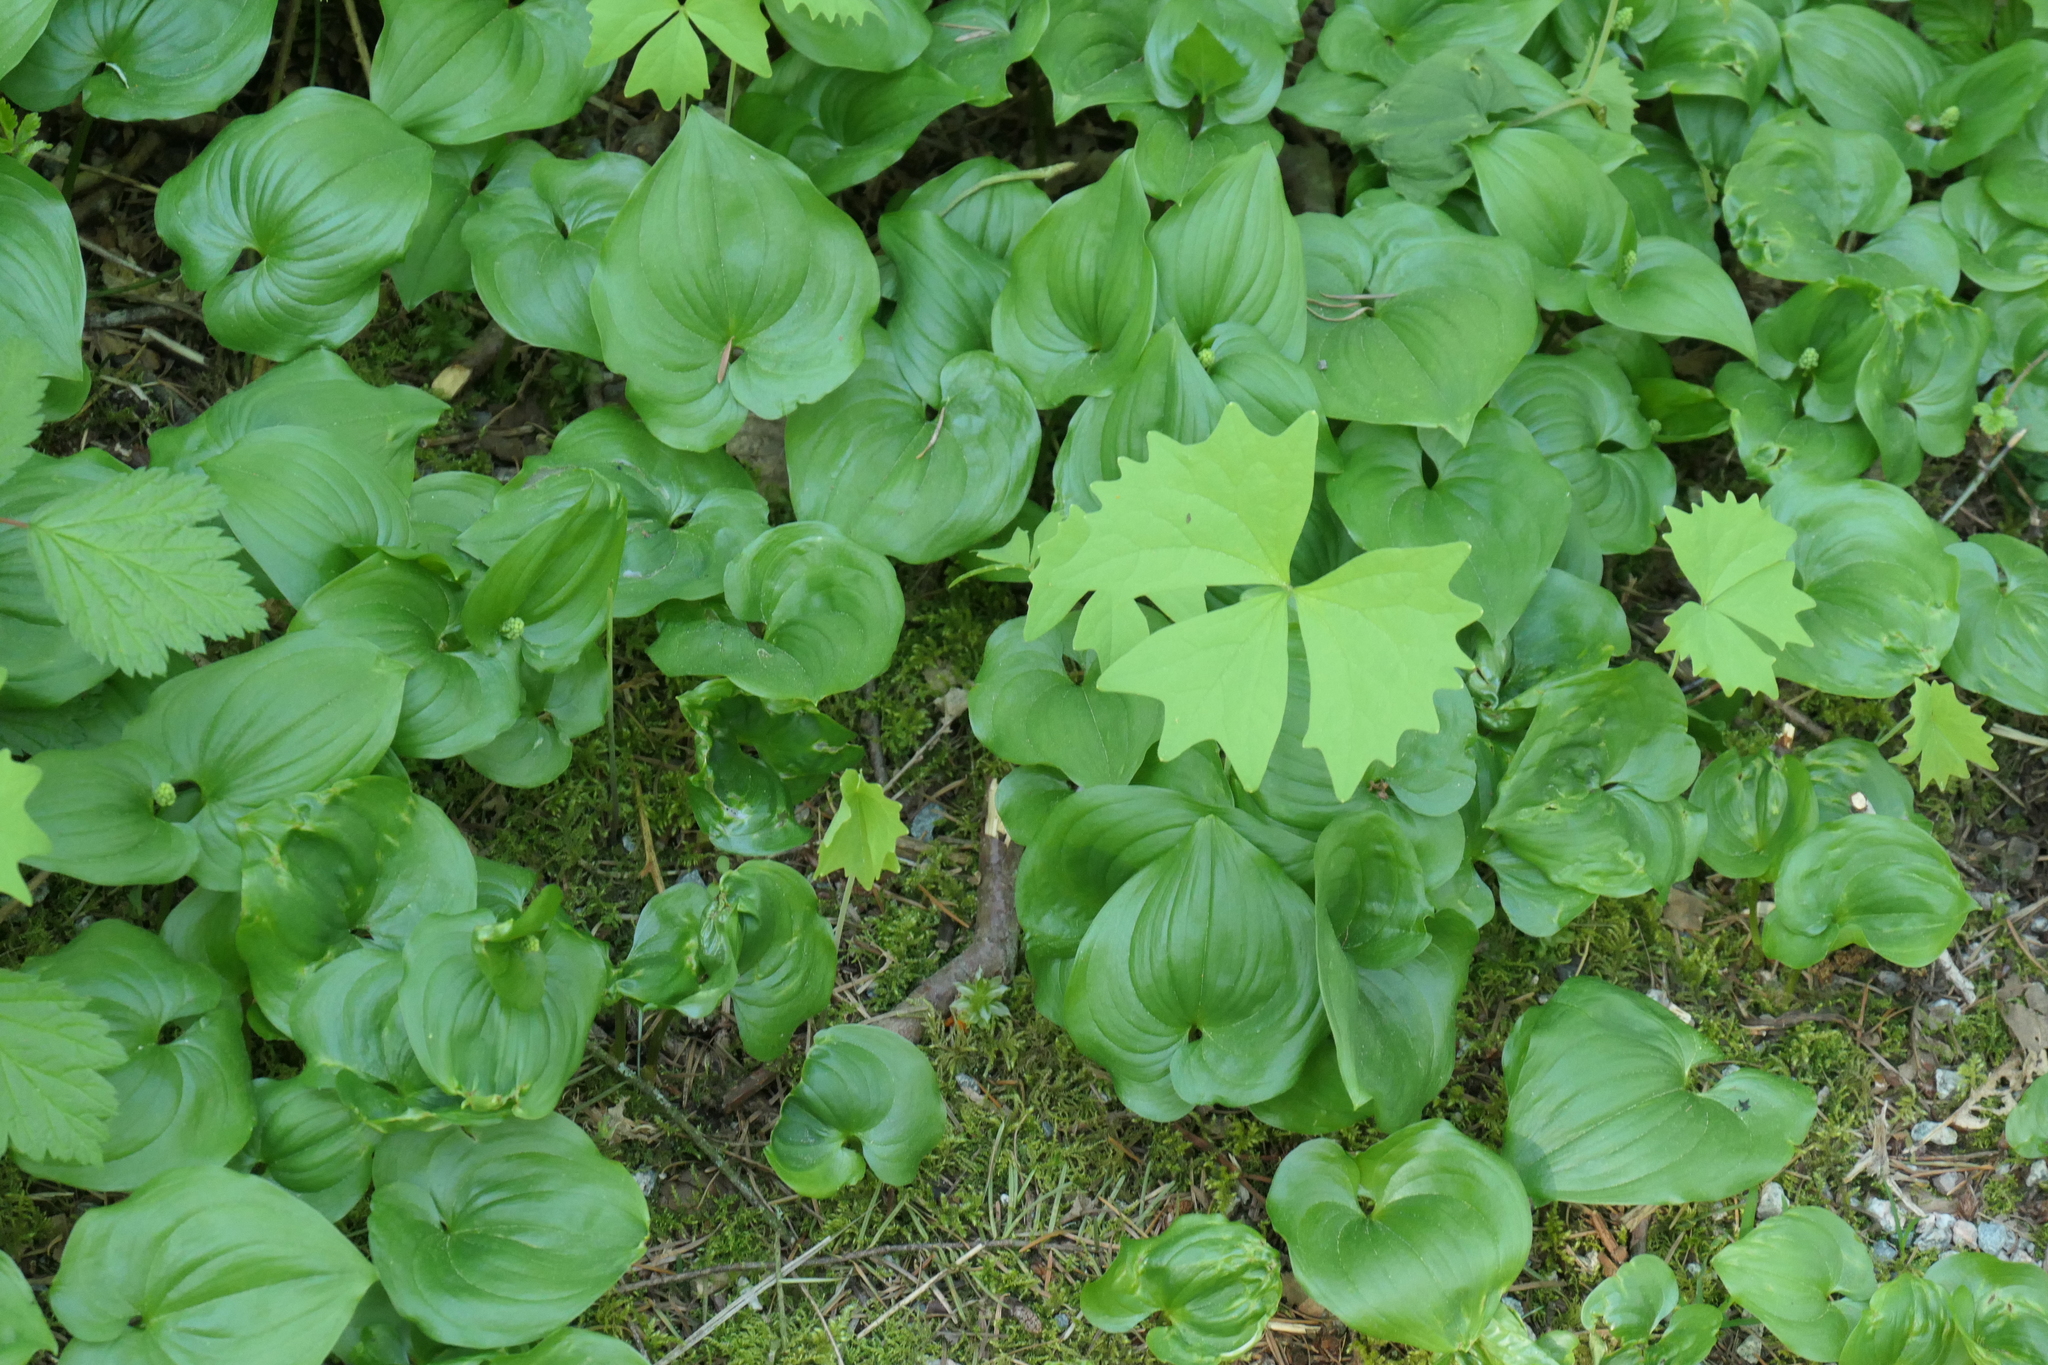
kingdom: Plantae
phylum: Tracheophyta
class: Magnoliopsida
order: Ranunculales
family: Berberidaceae
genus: Achlys
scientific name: Achlys triphylla
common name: Vanilla-leaf
